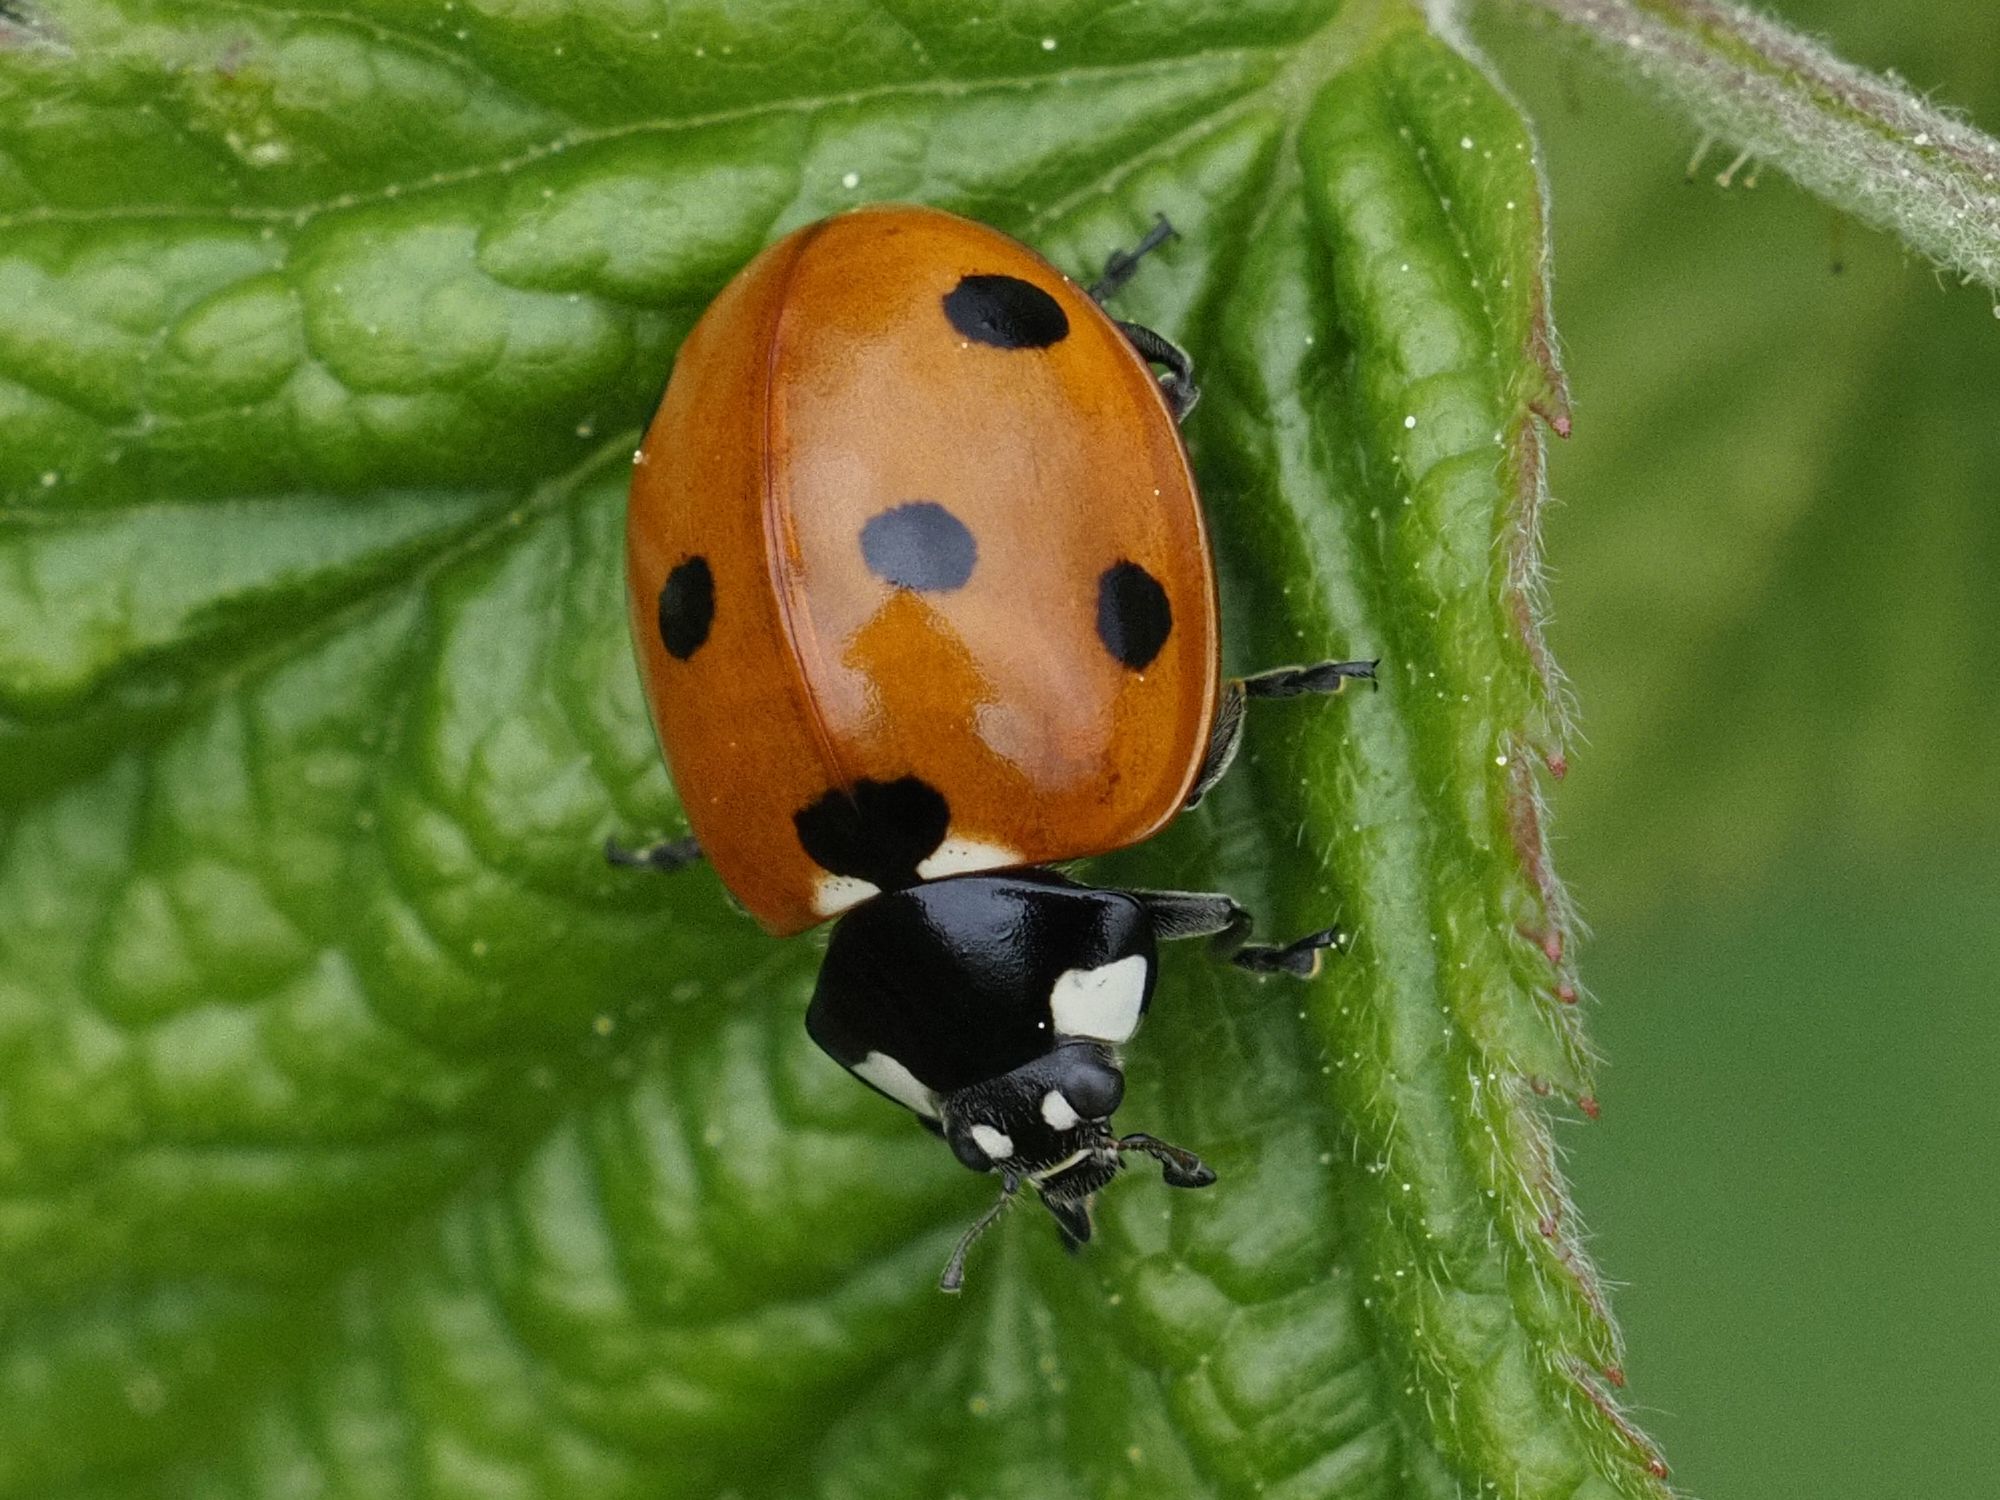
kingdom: Animalia
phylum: Arthropoda
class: Insecta
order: Coleoptera
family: Coccinellidae
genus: Coccinella
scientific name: Coccinella septempunctata
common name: Sevenspotted lady beetle
